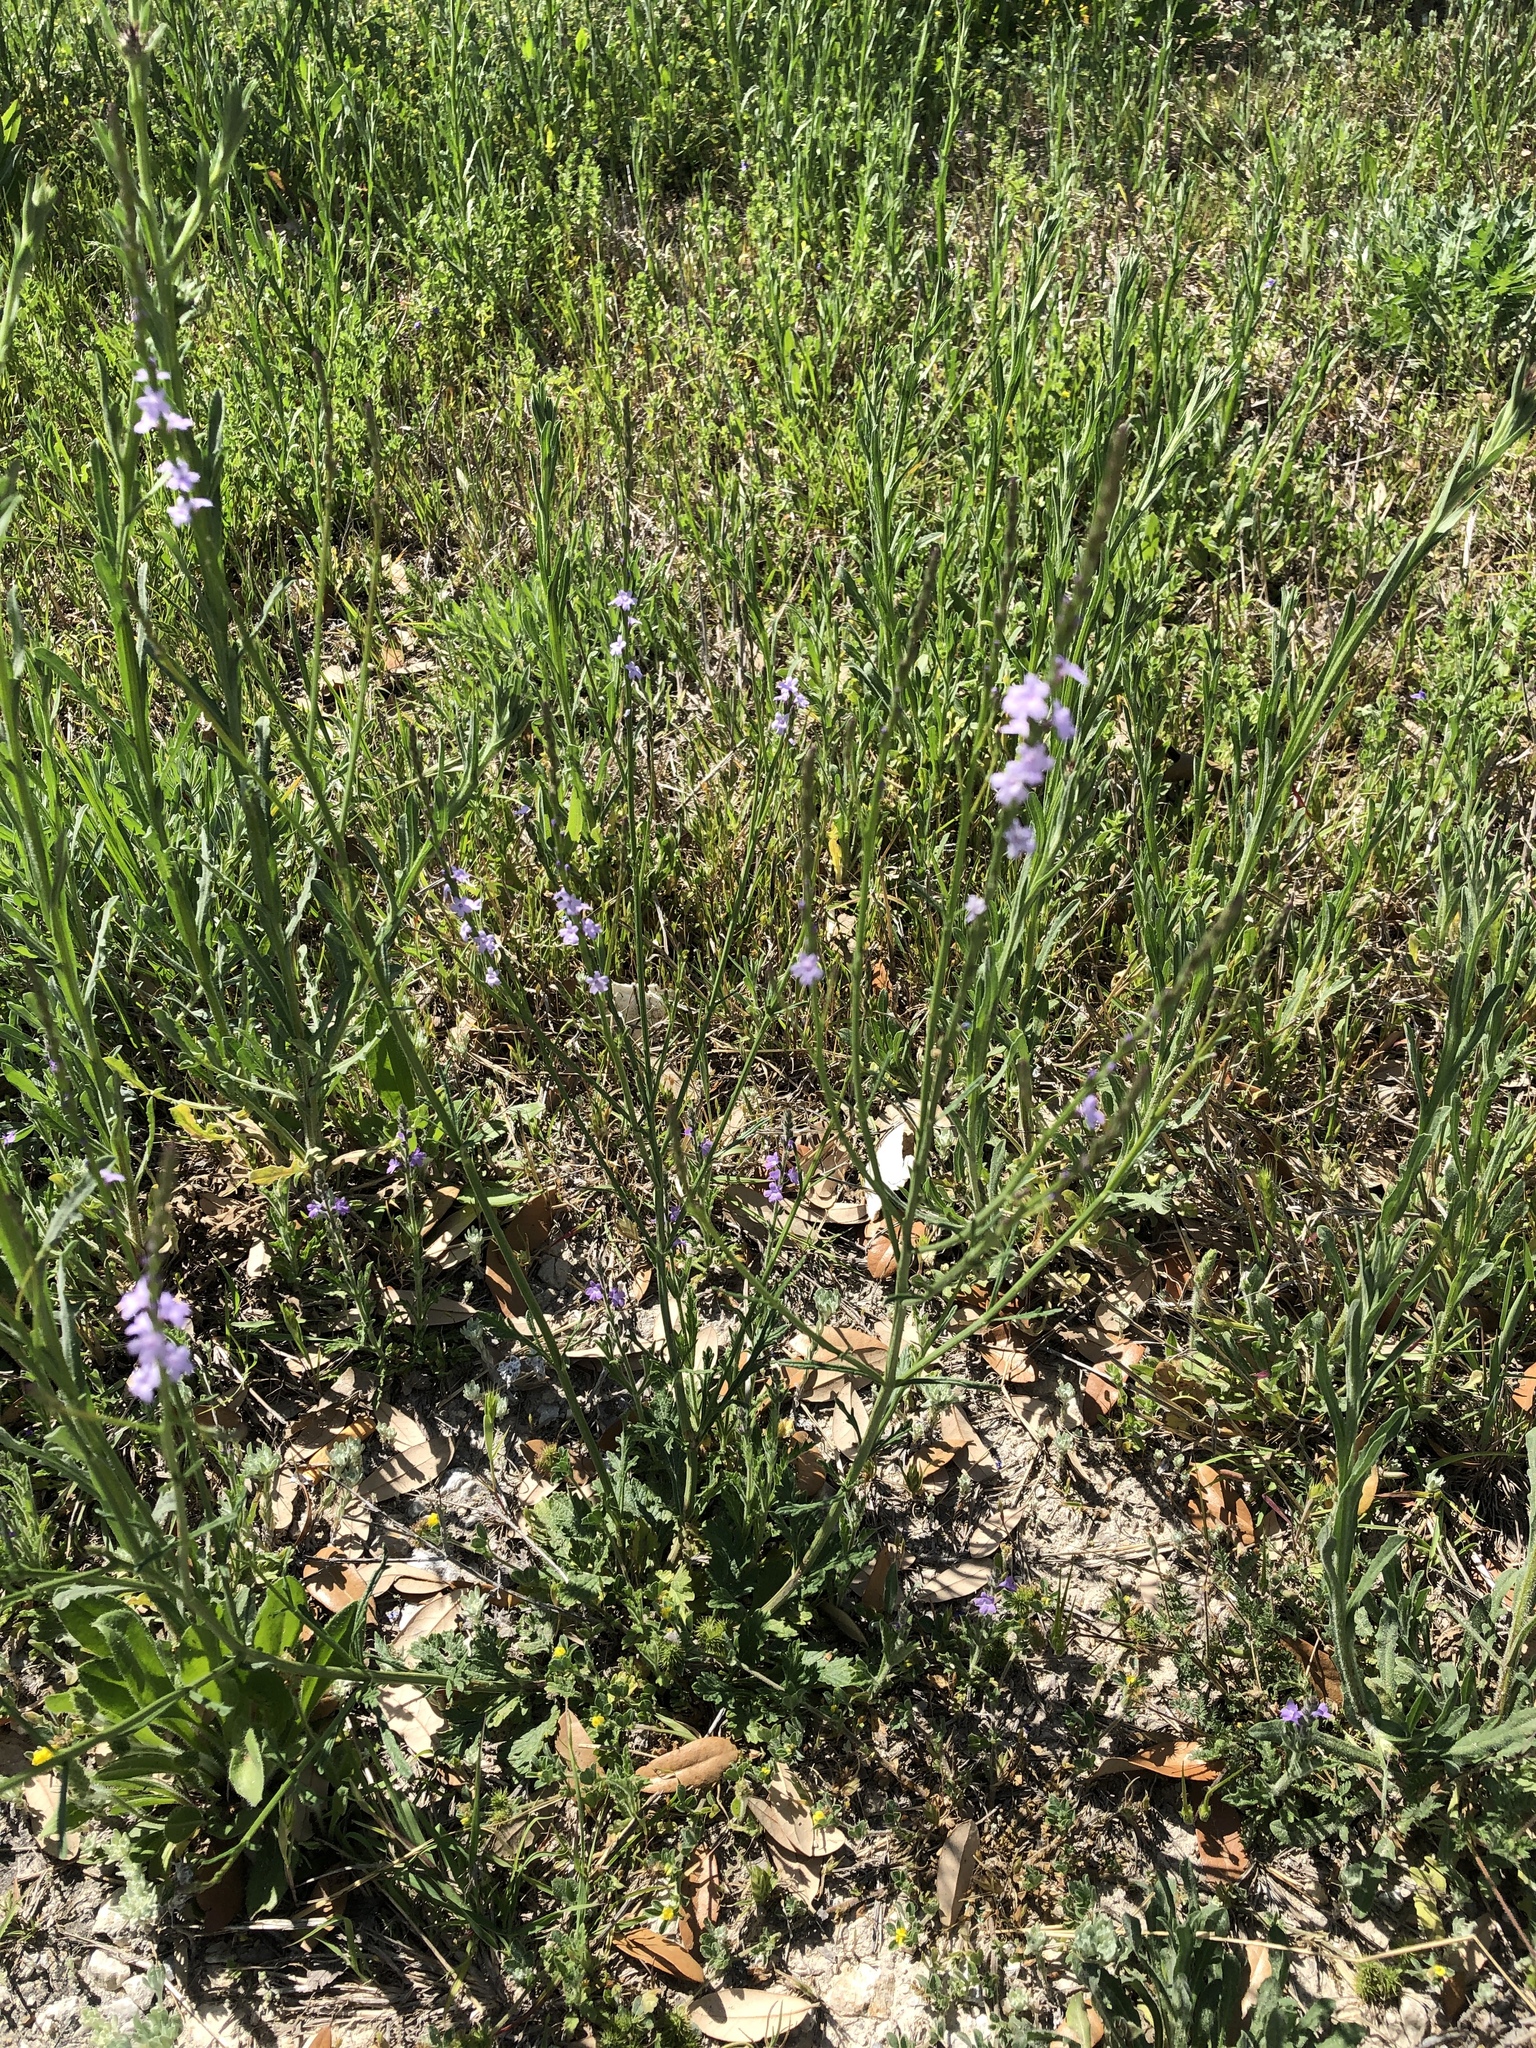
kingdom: Plantae
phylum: Tracheophyta
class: Magnoliopsida
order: Lamiales
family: Verbenaceae
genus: Verbena
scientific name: Verbena halei
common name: Texas vervain
